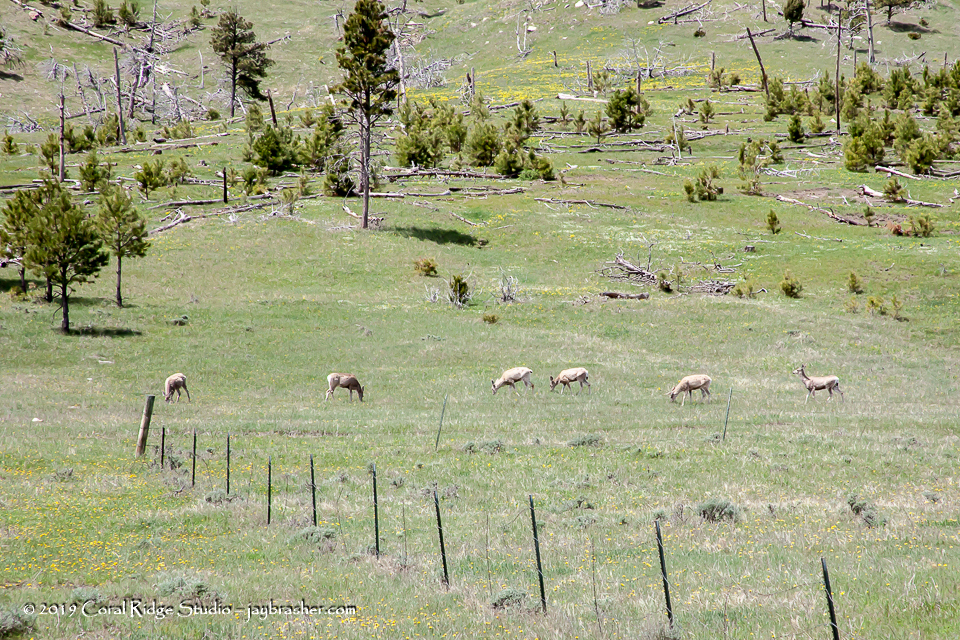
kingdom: Animalia
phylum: Chordata
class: Mammalia
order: Artiodactyla
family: Cervidae
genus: Odocoileus
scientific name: Odocoileus hemionus
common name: Mule deer
